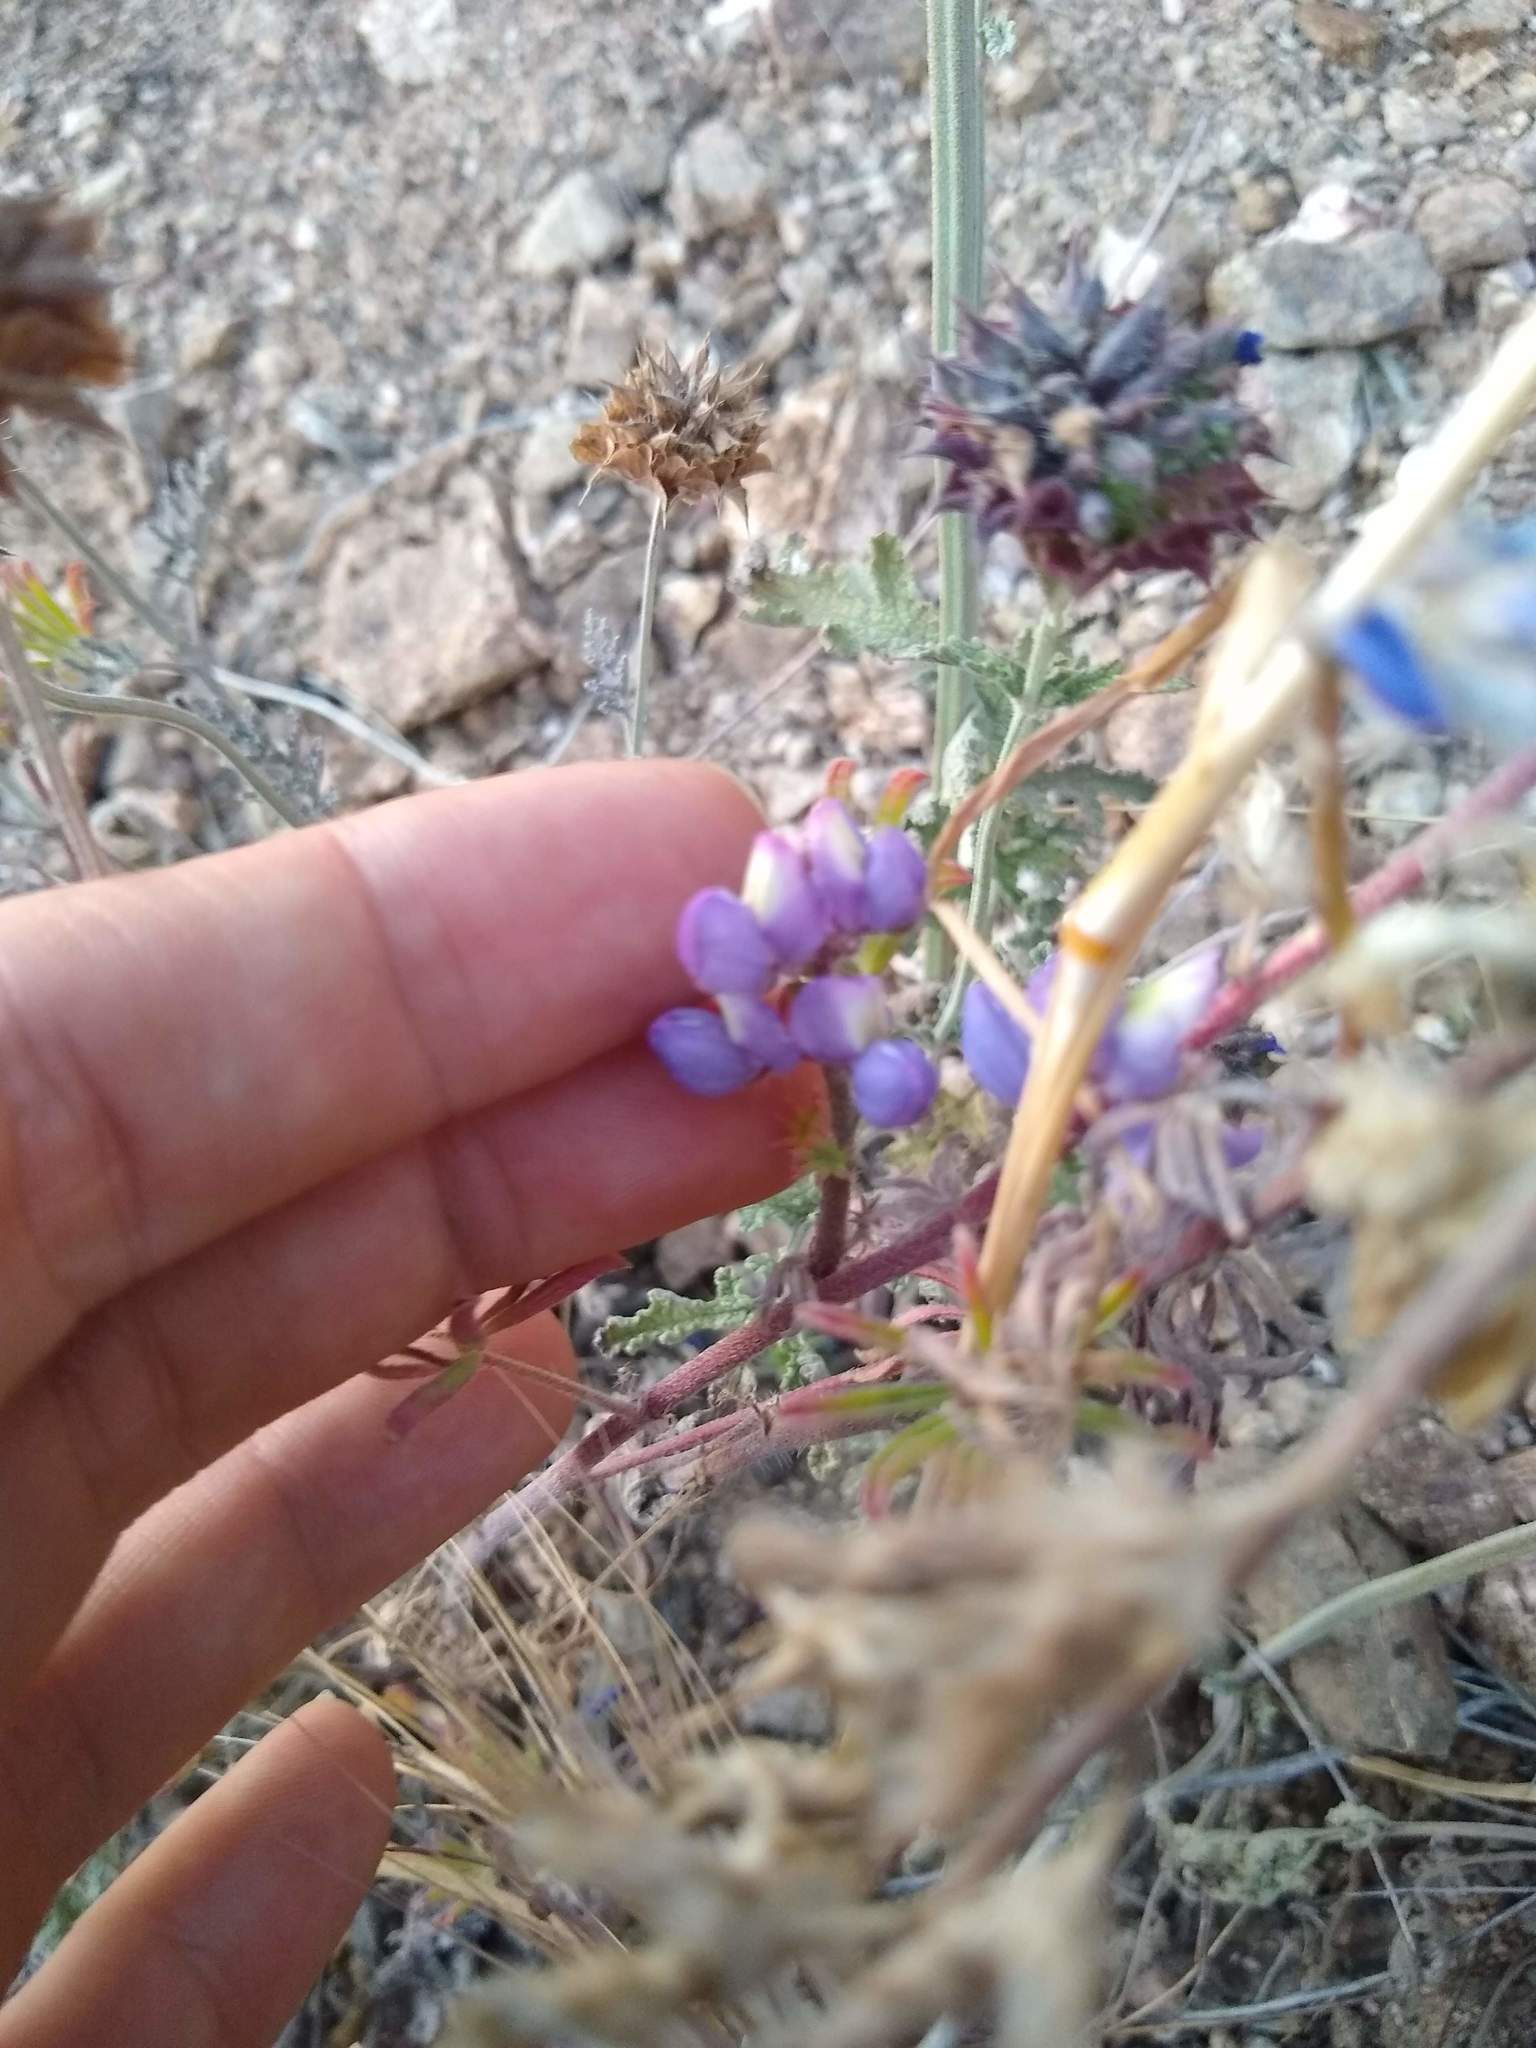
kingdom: Plantae
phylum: Tracheophyta
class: Magnoliopsida
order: Fabales
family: Fabaceae
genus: Lupinus
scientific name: Lupinus bicolor
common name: Miniature lupine
